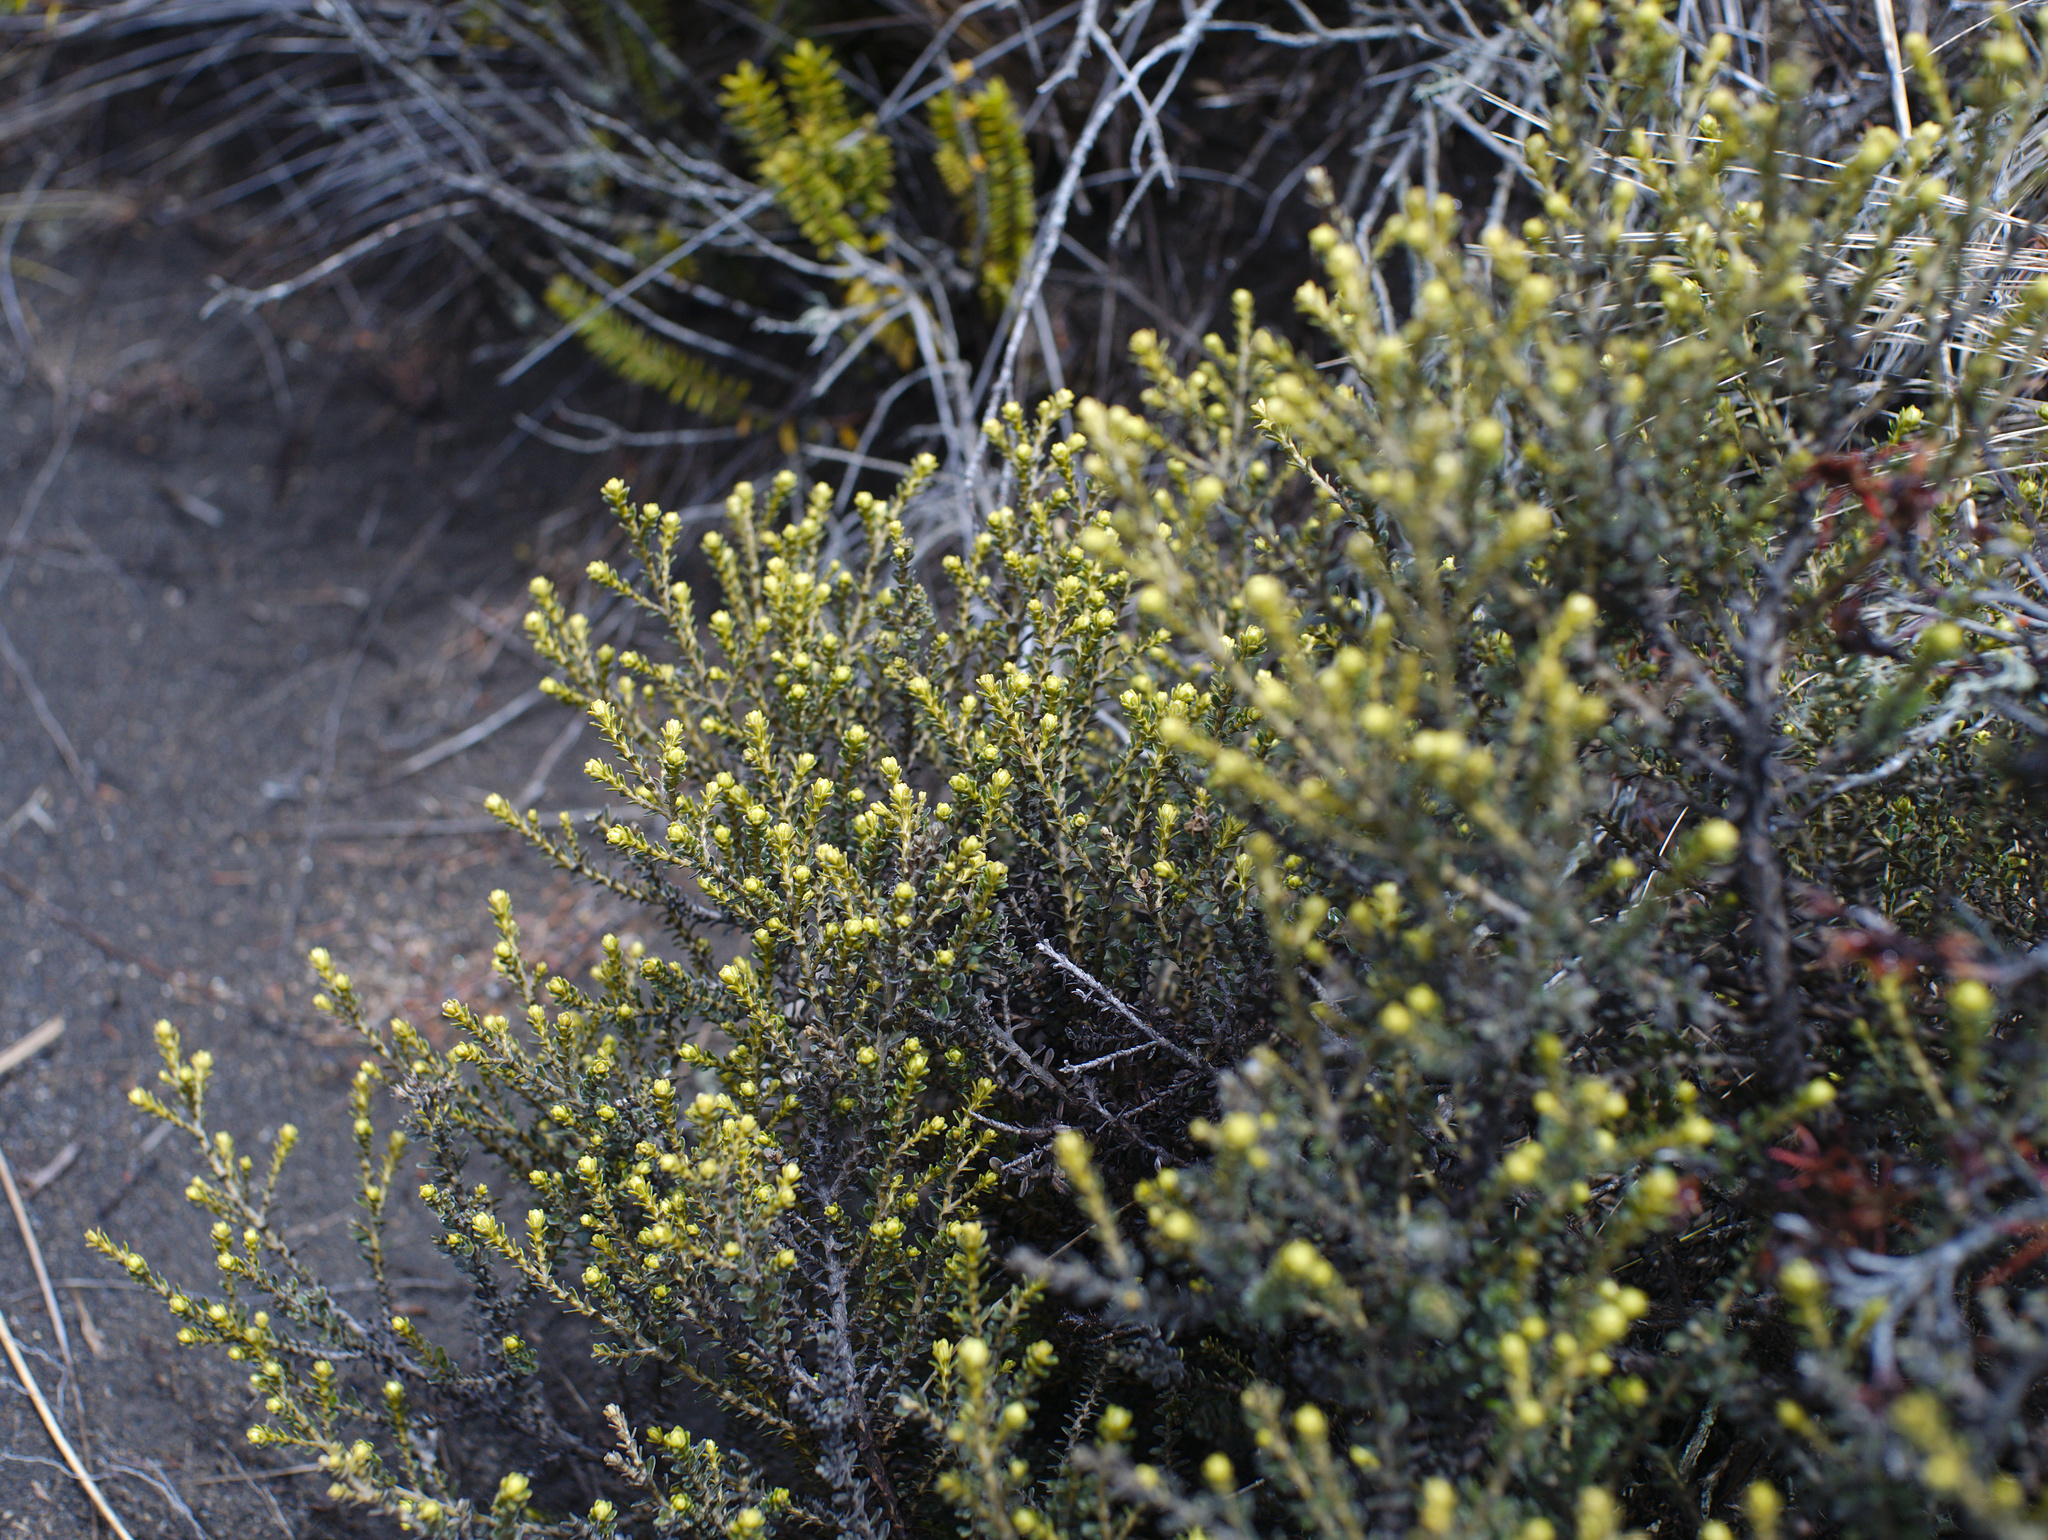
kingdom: Plantae
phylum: Tracheophyta
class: Magnoliopsida
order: Asterales
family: Asteraceae
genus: Ozothamnus
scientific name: Ozothamnus leptophyllus
